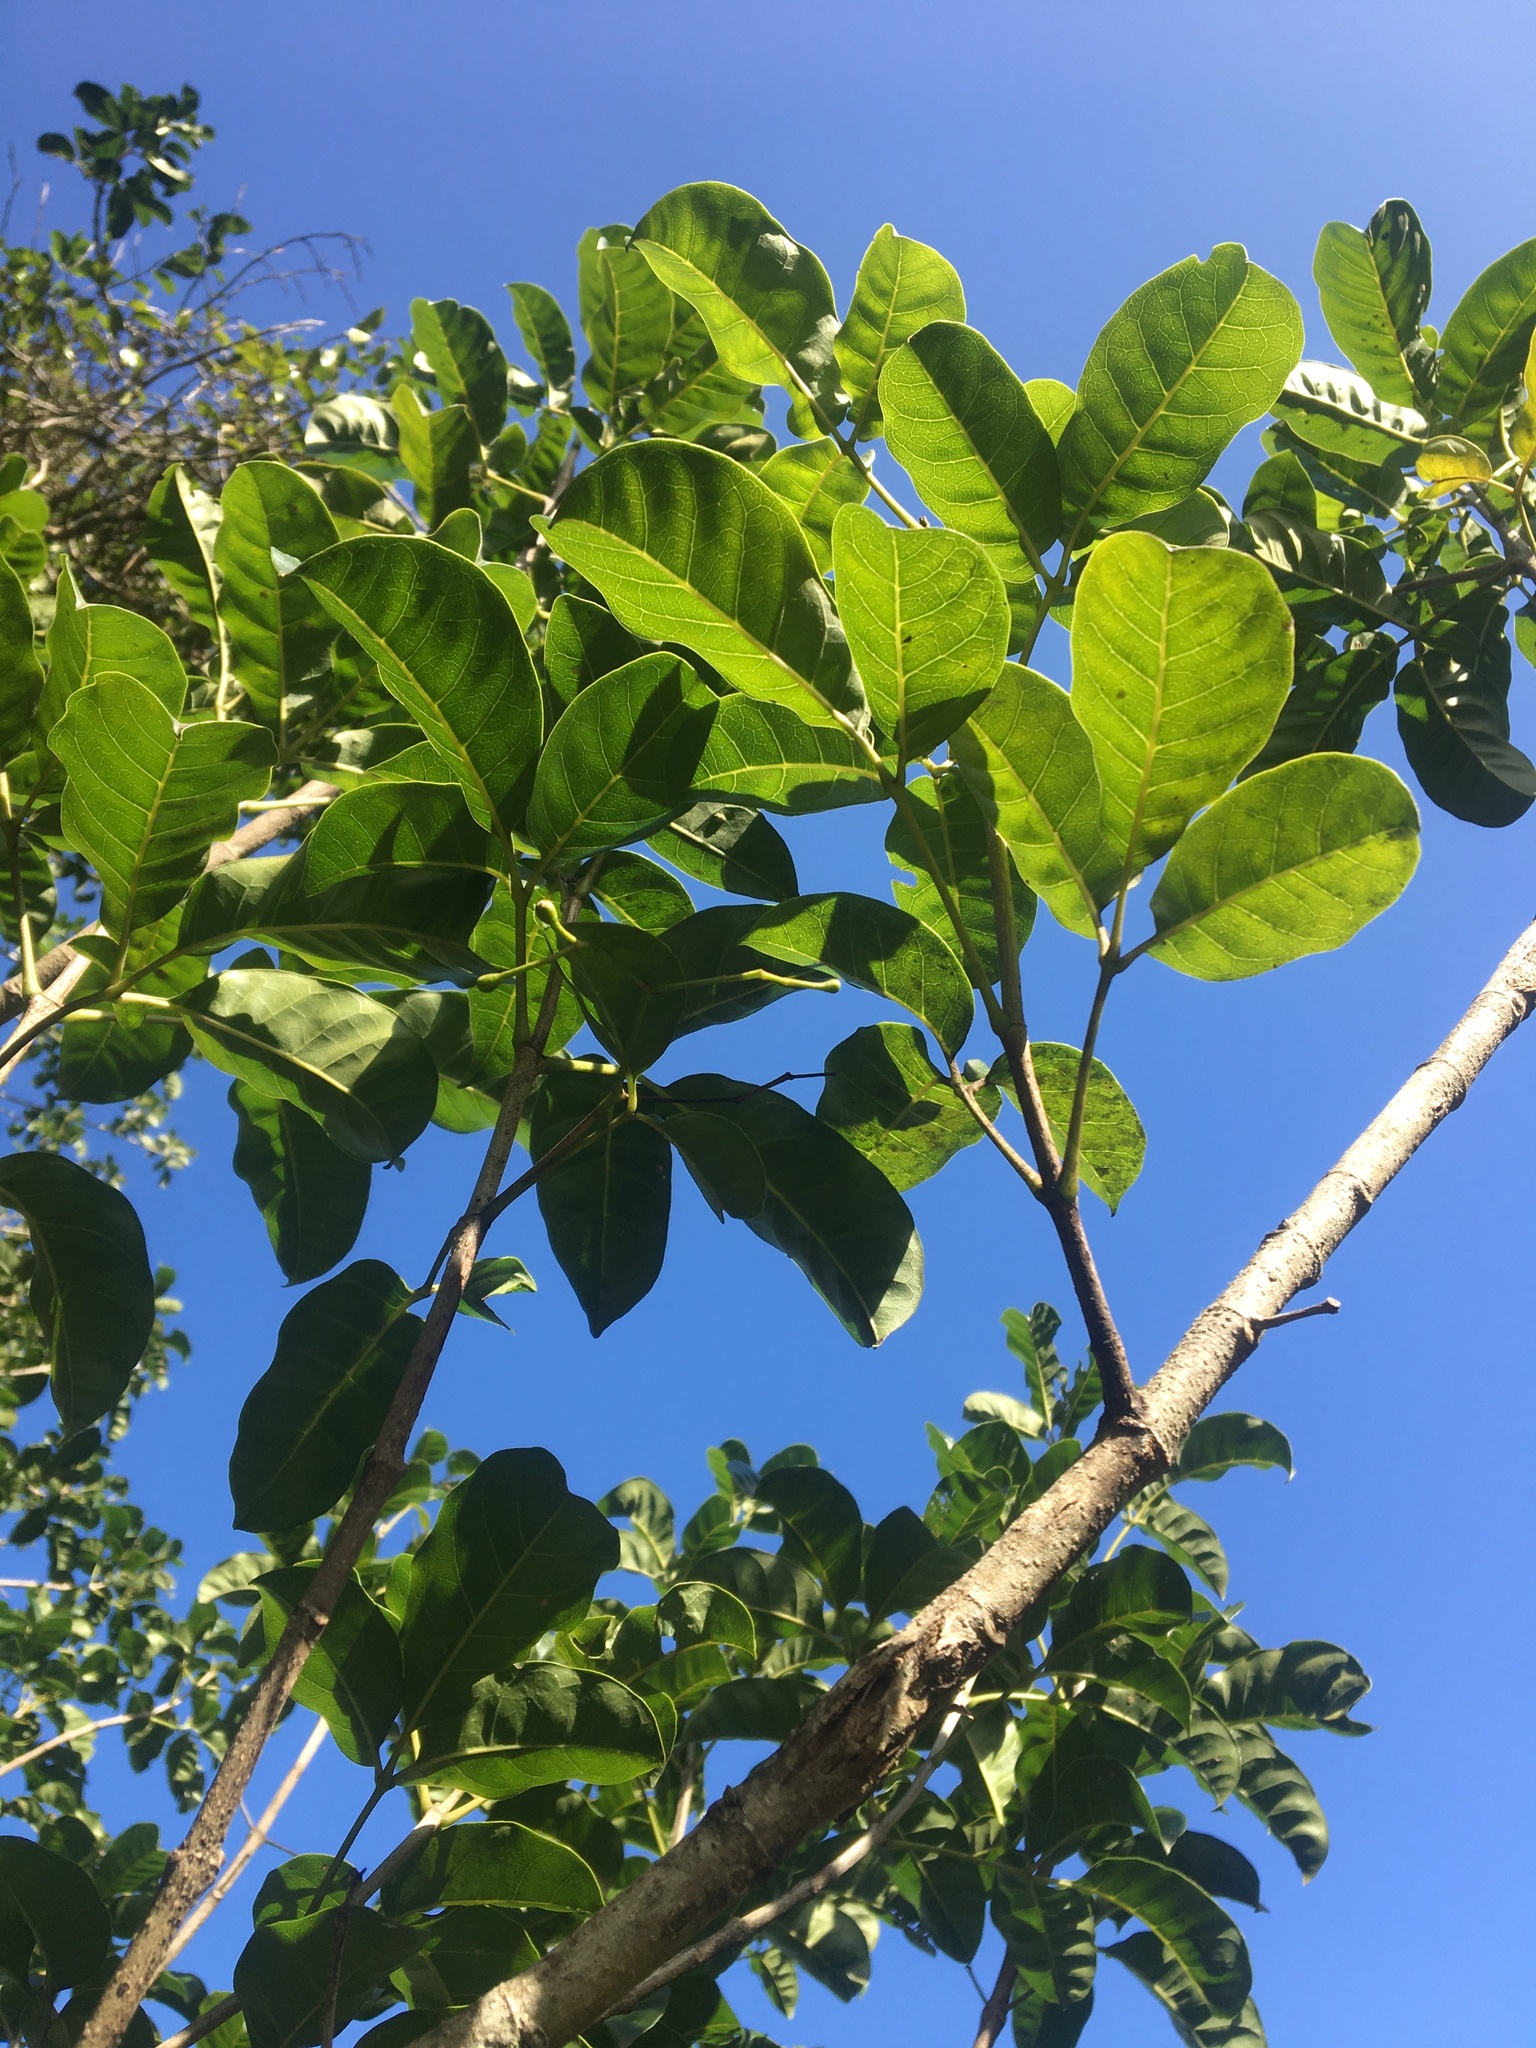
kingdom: Plantae
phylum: Tracheophyta
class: Magnoliopsida
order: Lamiales
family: Lamiaceae
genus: Vitex
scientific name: Vitex lucens
